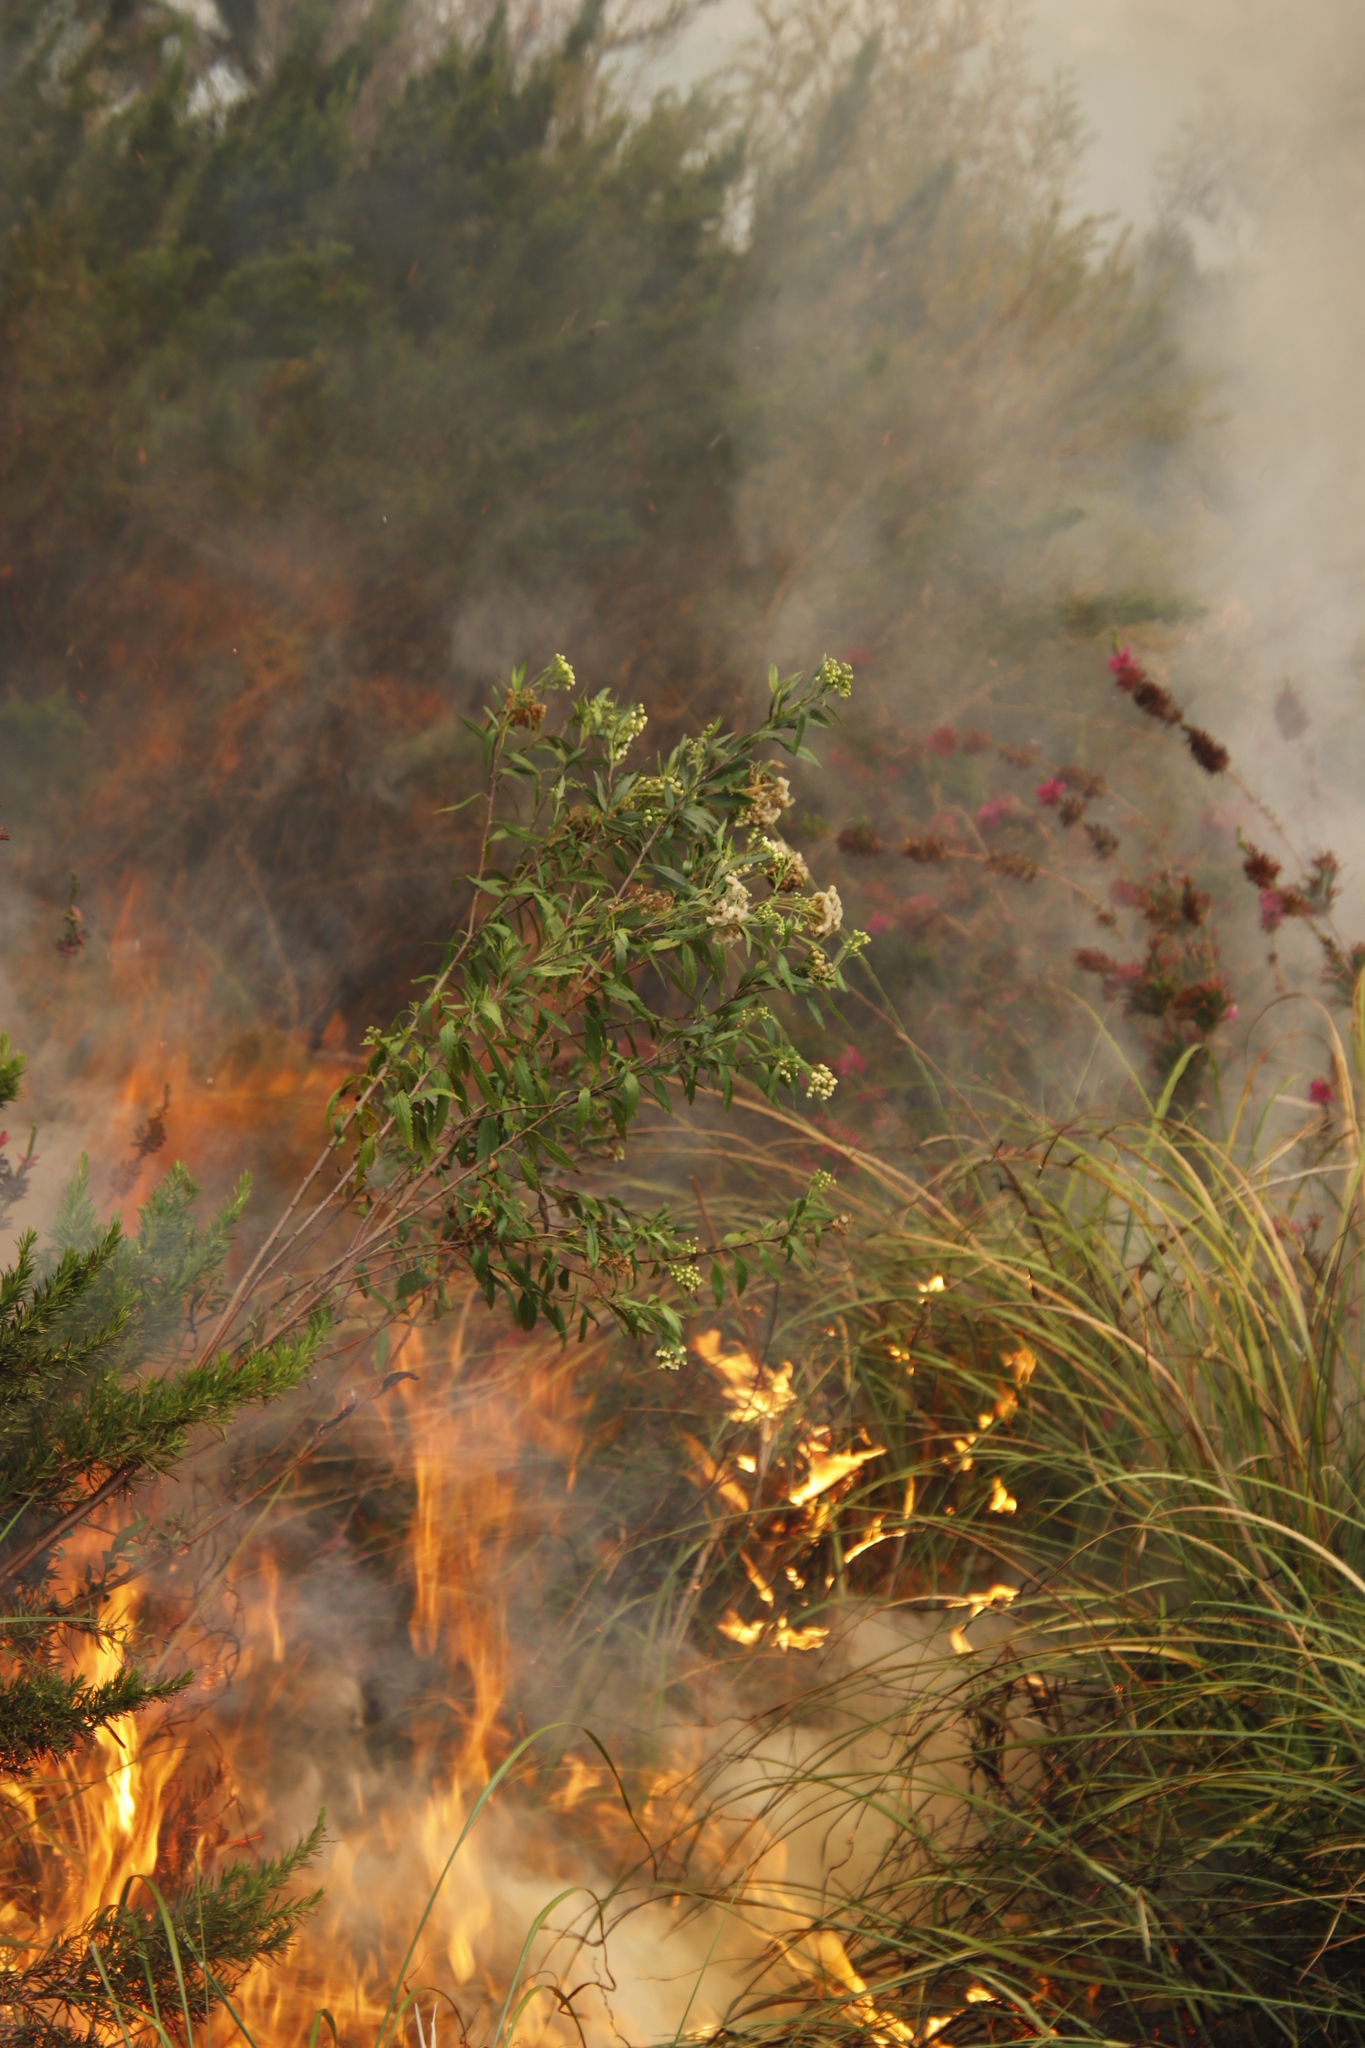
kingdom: Plantae
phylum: Tracheophyta
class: Magnoliopsida
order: Asterales
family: Asteraceae
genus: Nidorella
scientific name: Nidorella ivifolia
